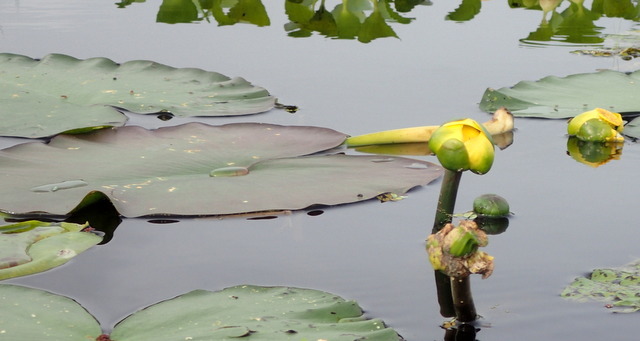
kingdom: Plantae
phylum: Tracheophyta
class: Magnoliopsida
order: Nymphaeales
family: Nymphaeaceae
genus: Nuphar
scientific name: Nuphar advena
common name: Spatter-dock
